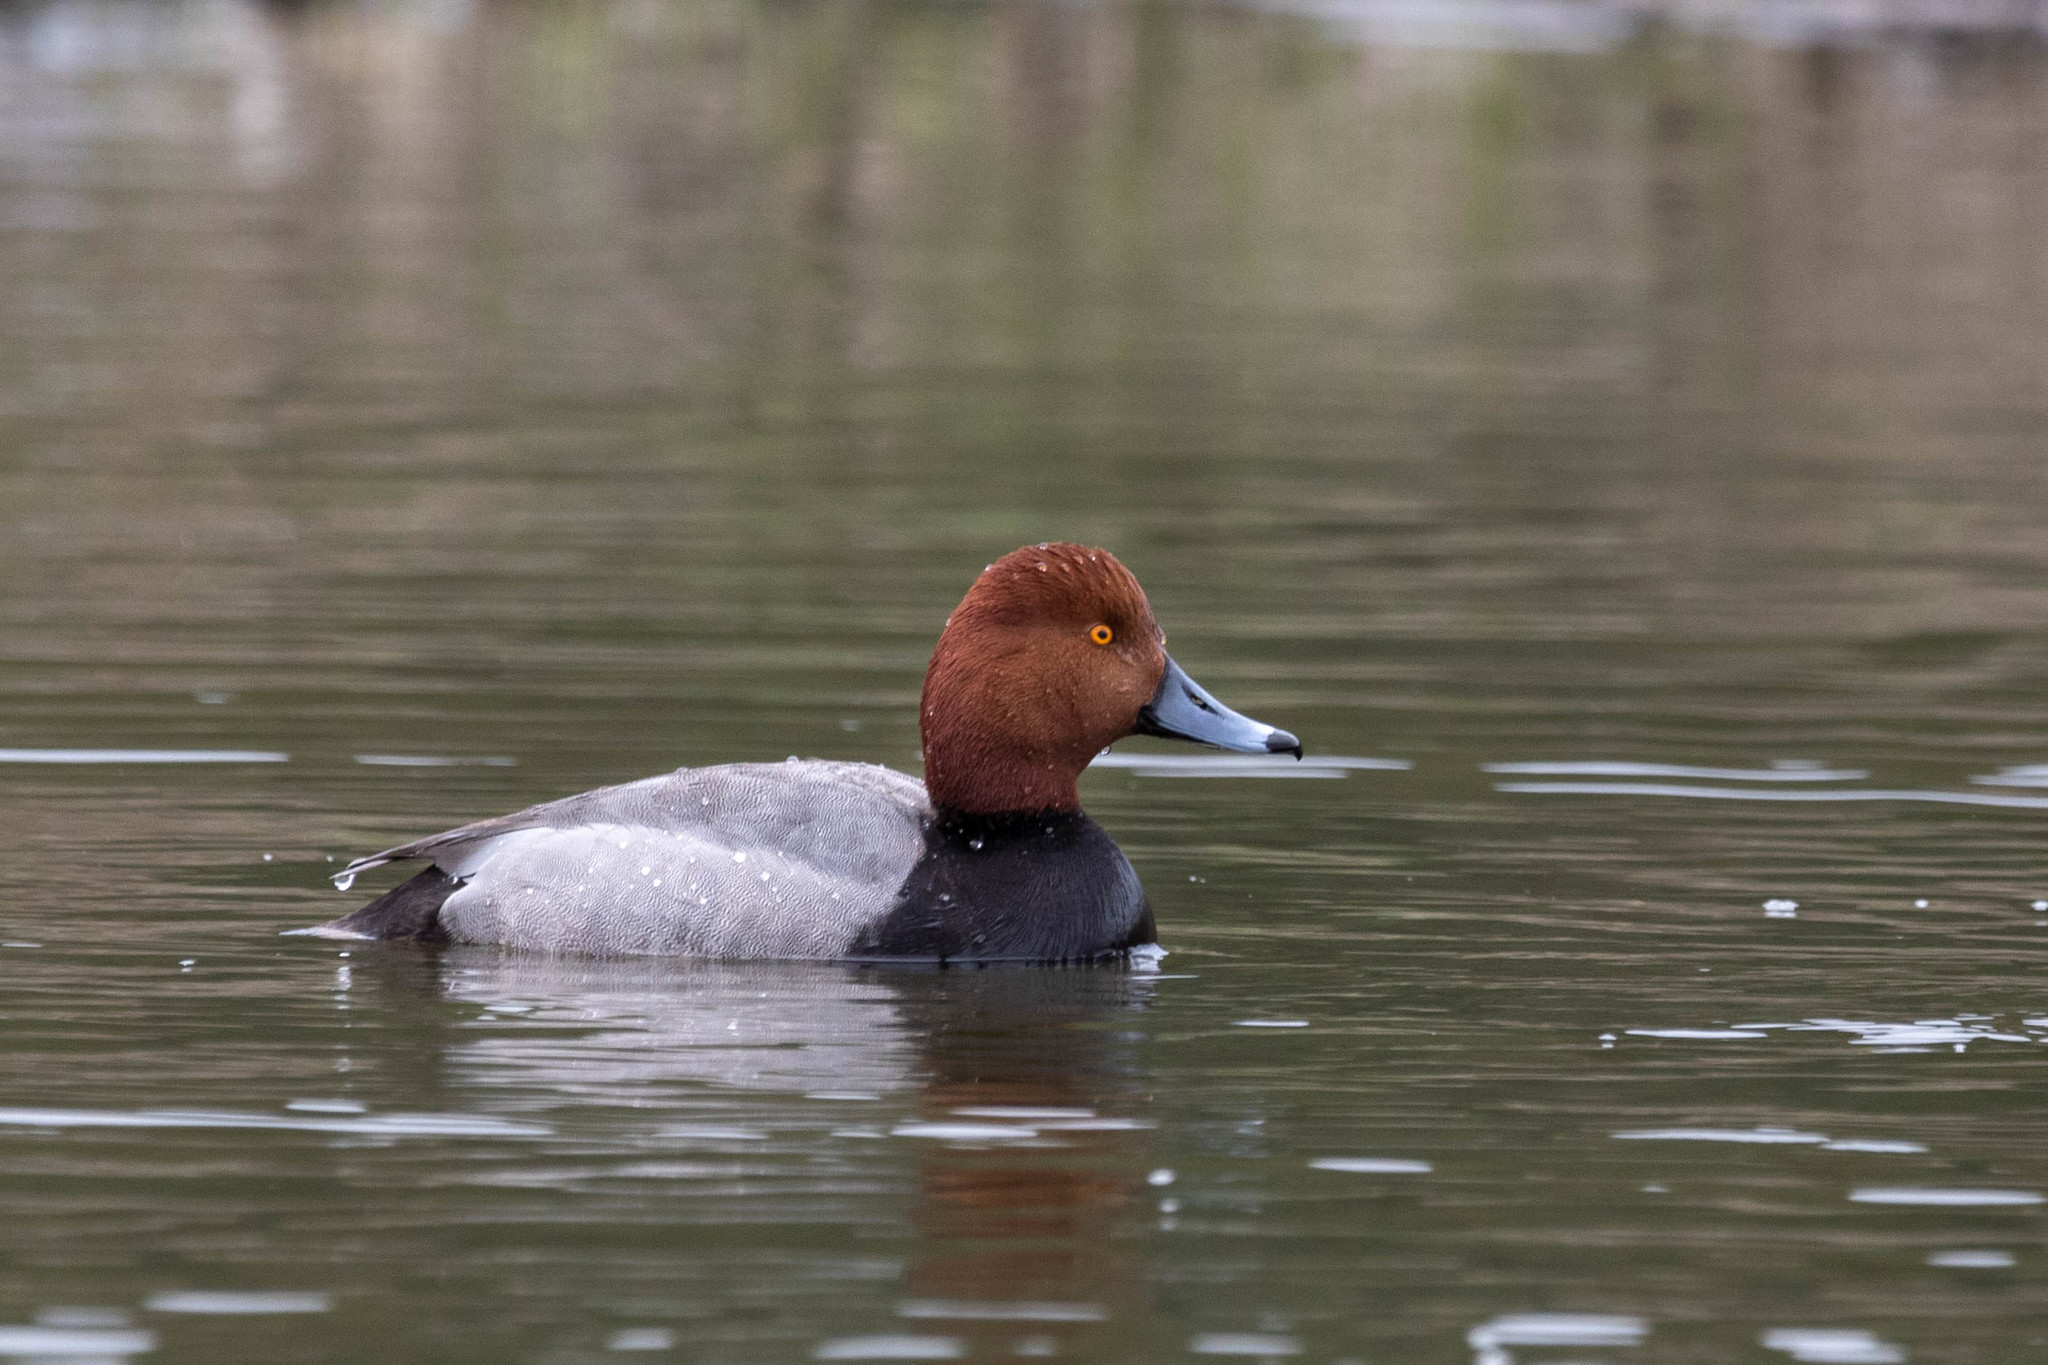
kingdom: Animalia
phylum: Chordata
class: Aves
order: Anseriformes
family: Anatidae
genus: Aythya
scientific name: Aythya americana
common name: Redhead
